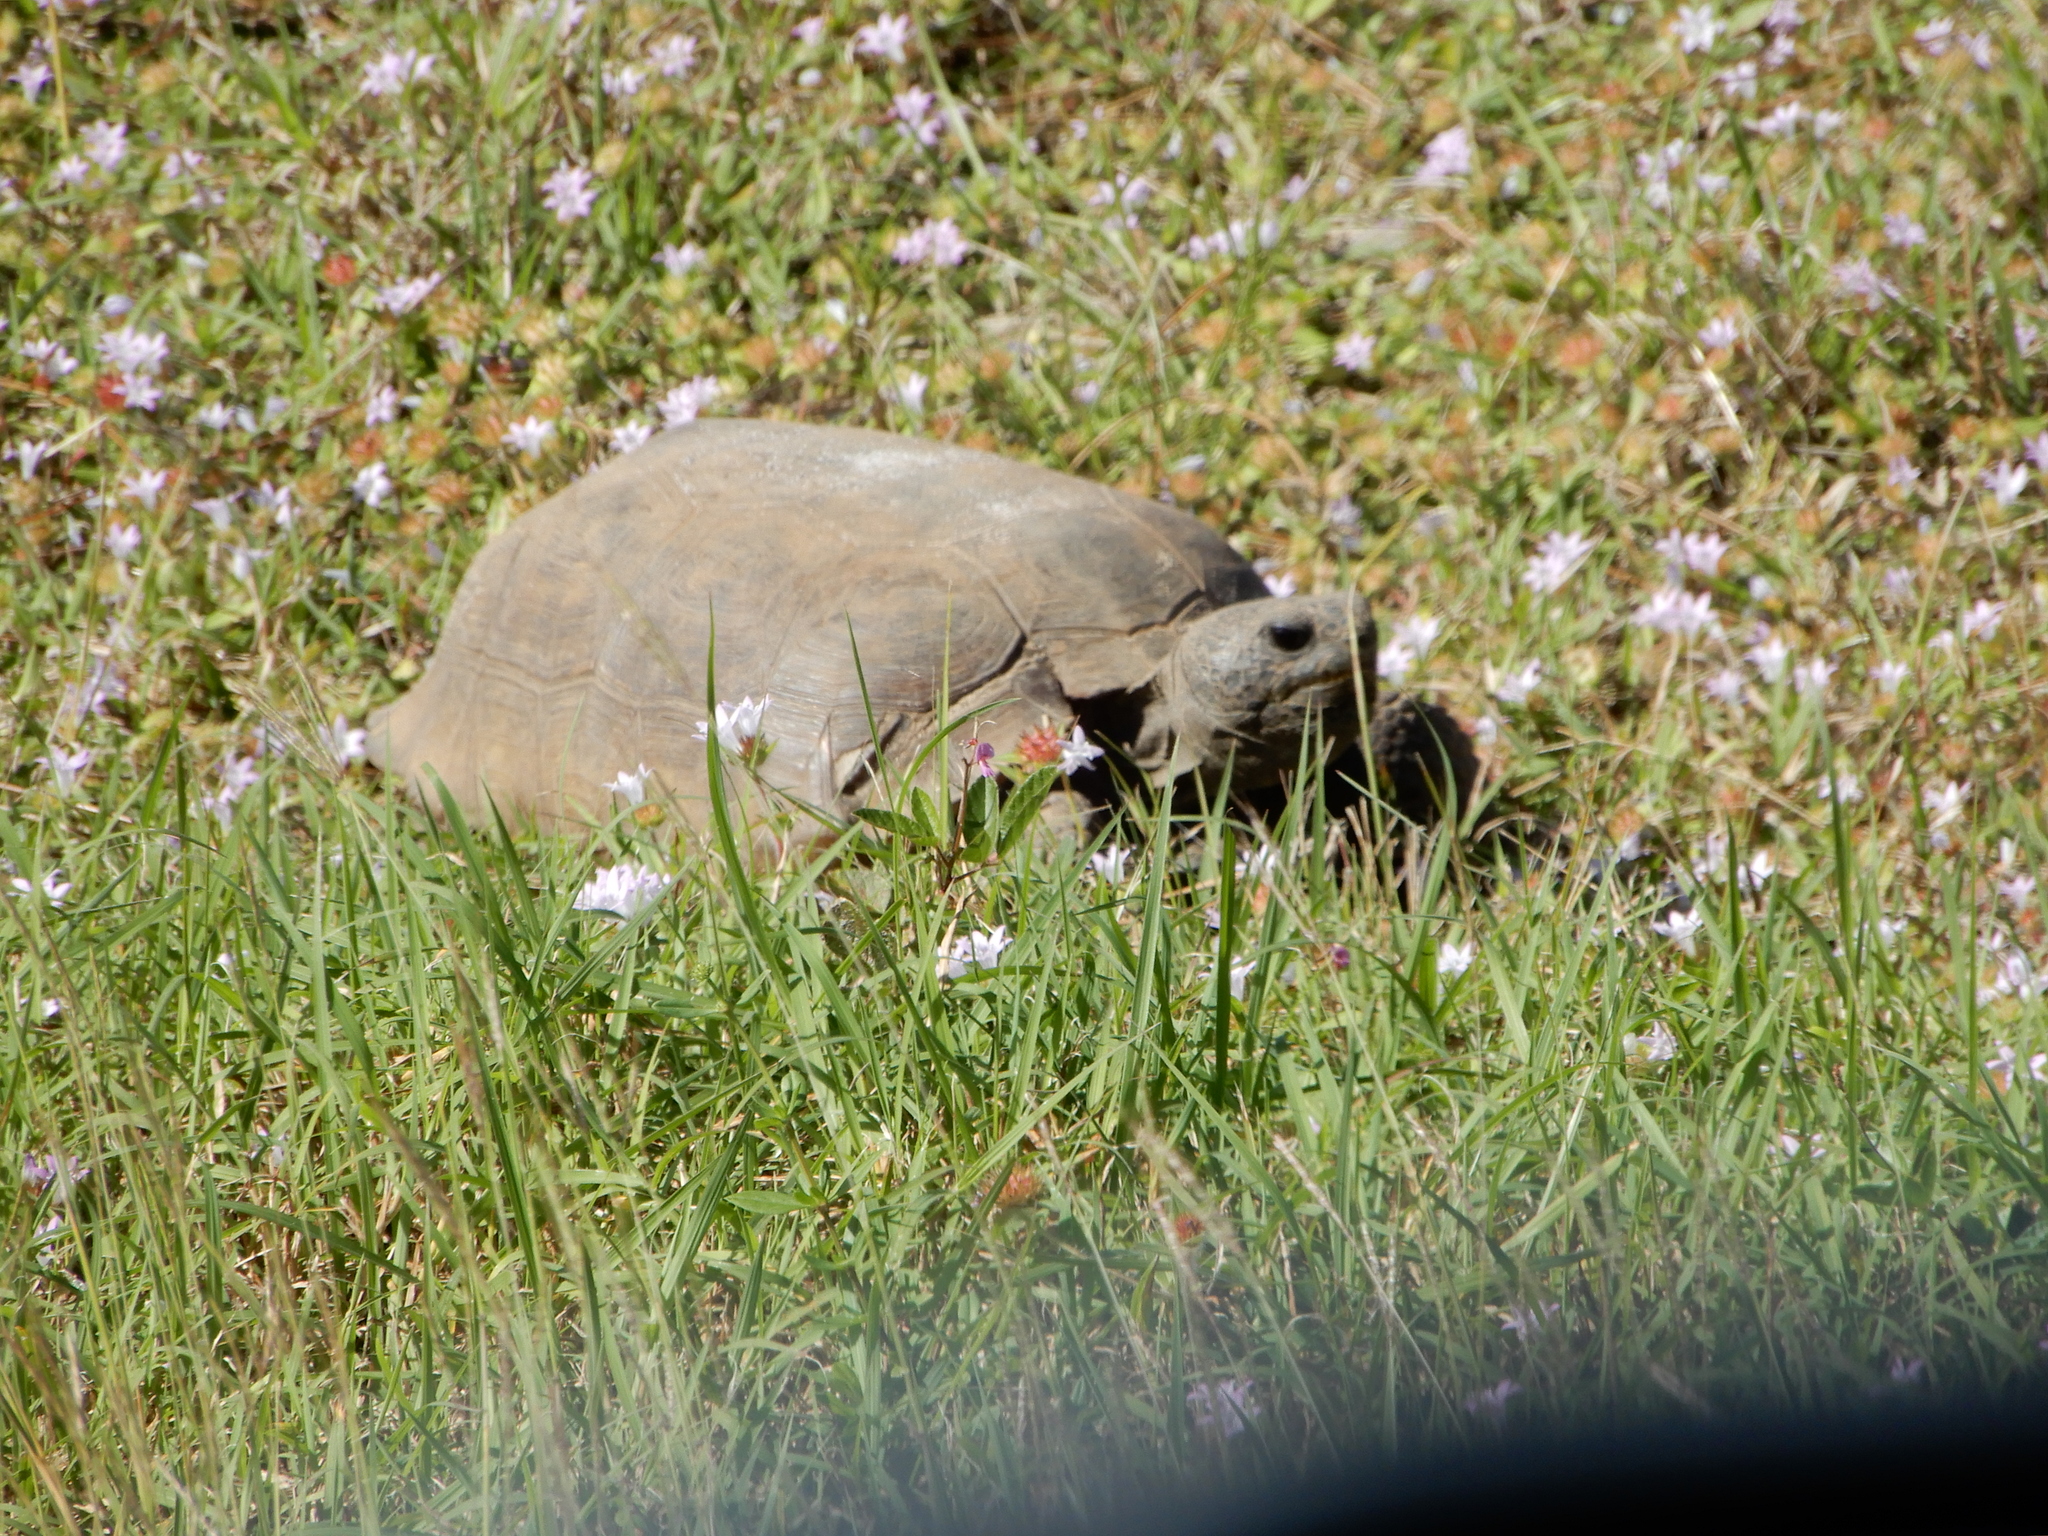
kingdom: Animalia
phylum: Chordata
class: Testudines
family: Testudinidae
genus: Gopherus
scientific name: Gopherus polyphemus
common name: Florida gopher tortoise
